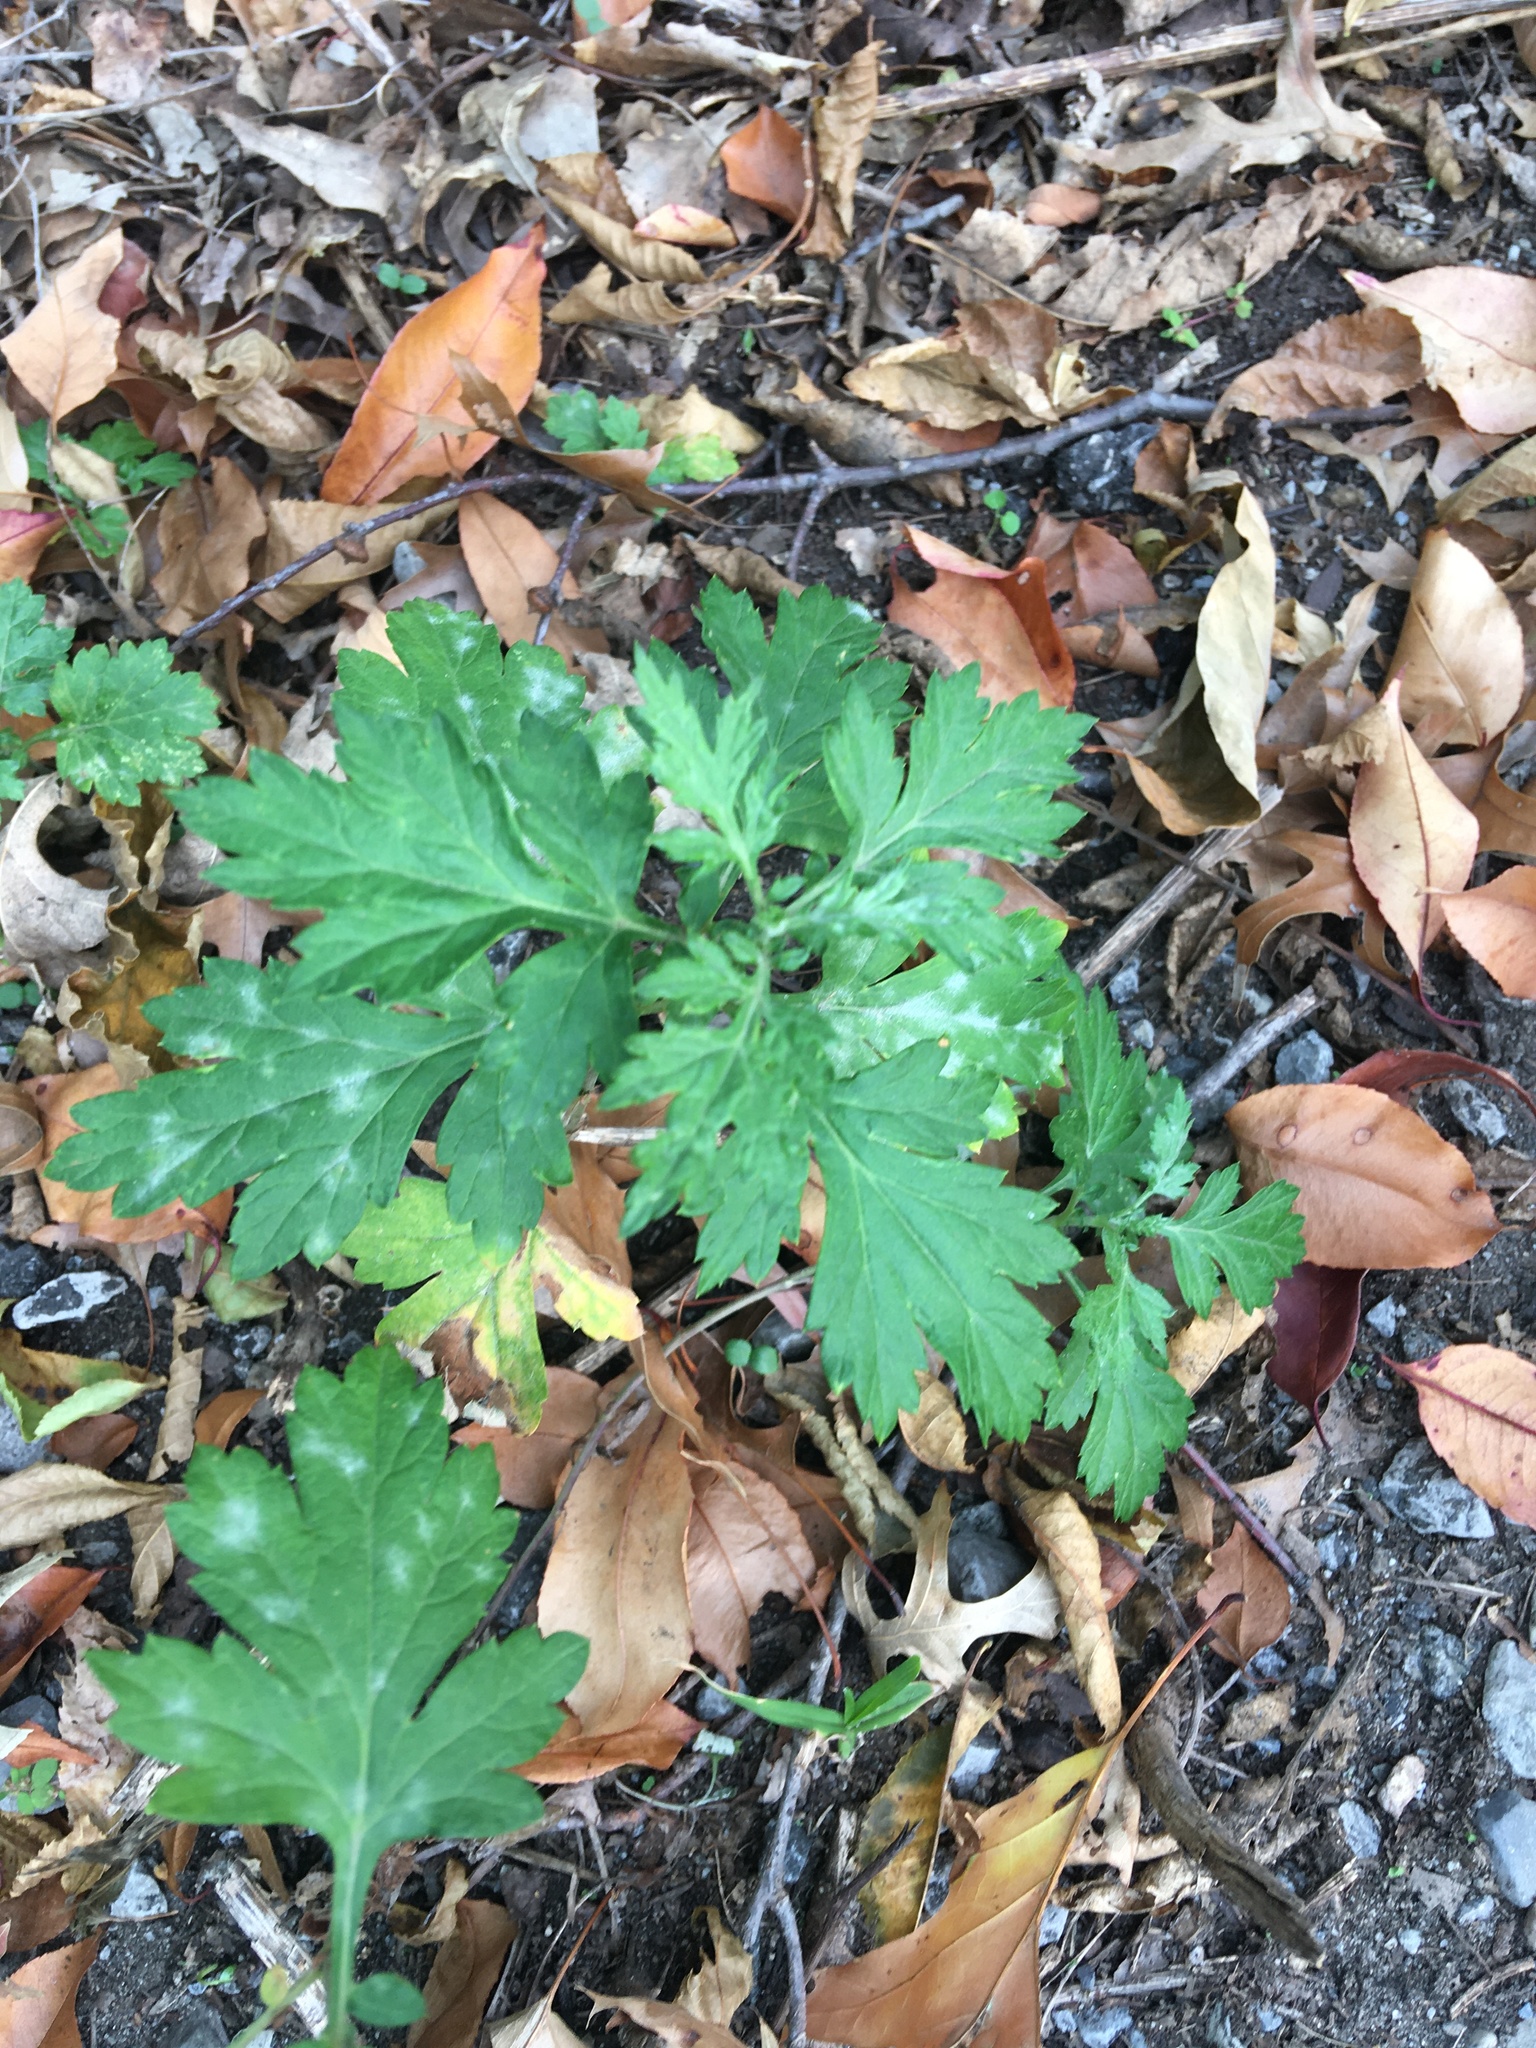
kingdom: Plantae
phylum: Tracheophyta
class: Magnoliopsida
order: Asterales
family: Asteraceae
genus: Artemisia
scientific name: Artemisia vulgaris
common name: Mugwort
